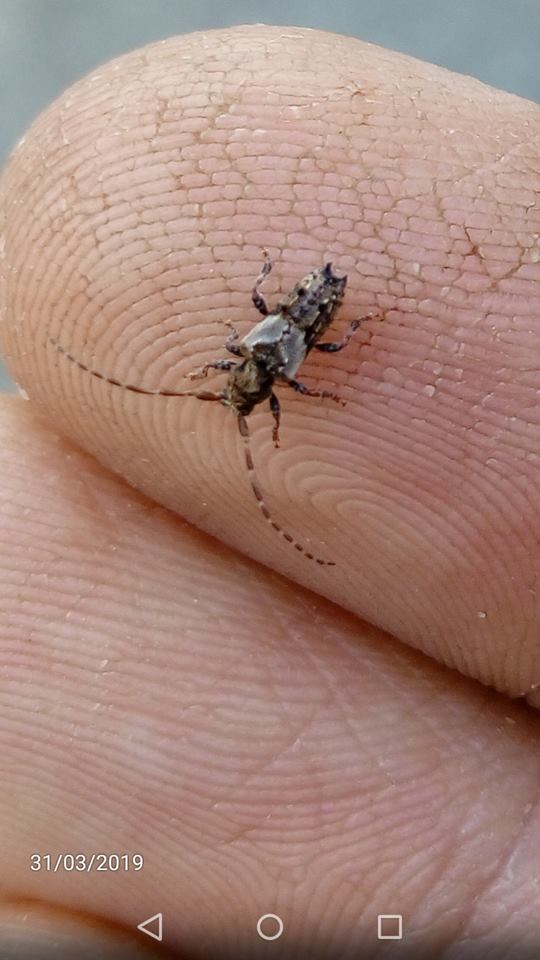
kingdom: Animalia
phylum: Arthropoda
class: Insecta
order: Coleoptera
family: Cerambycidae
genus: Pogonocherus
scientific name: Pogonocherus hispidus
